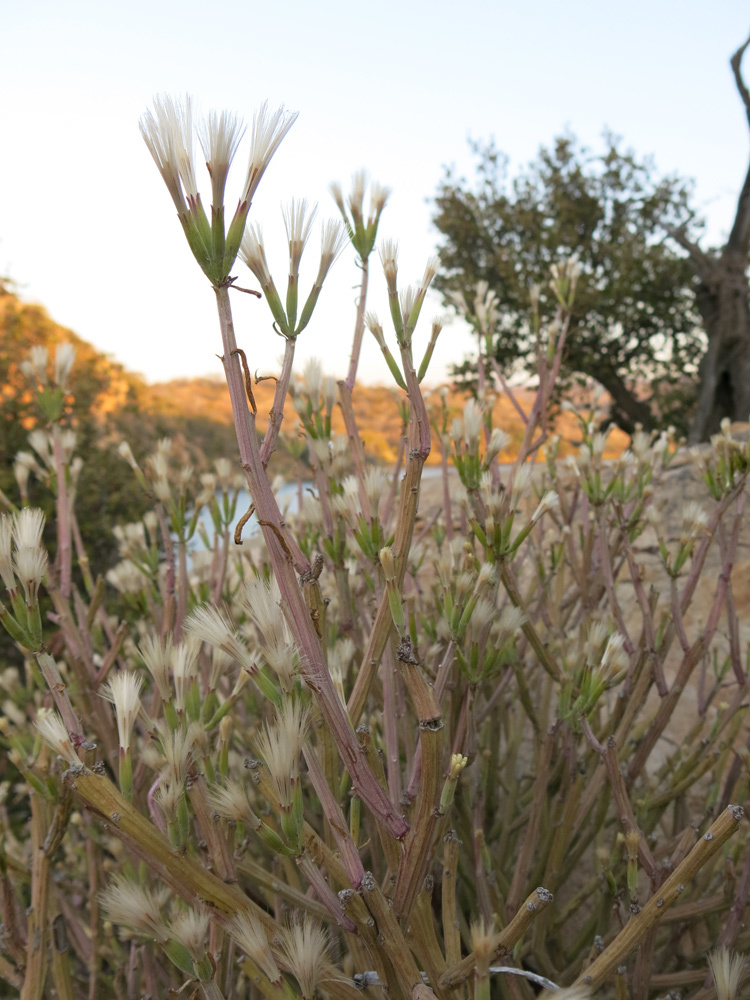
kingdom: Plantae
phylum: Tracheophyta
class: Magnoliopsida
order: Asterales
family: Asteraceae
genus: Curio
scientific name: Curio avasimontanus
